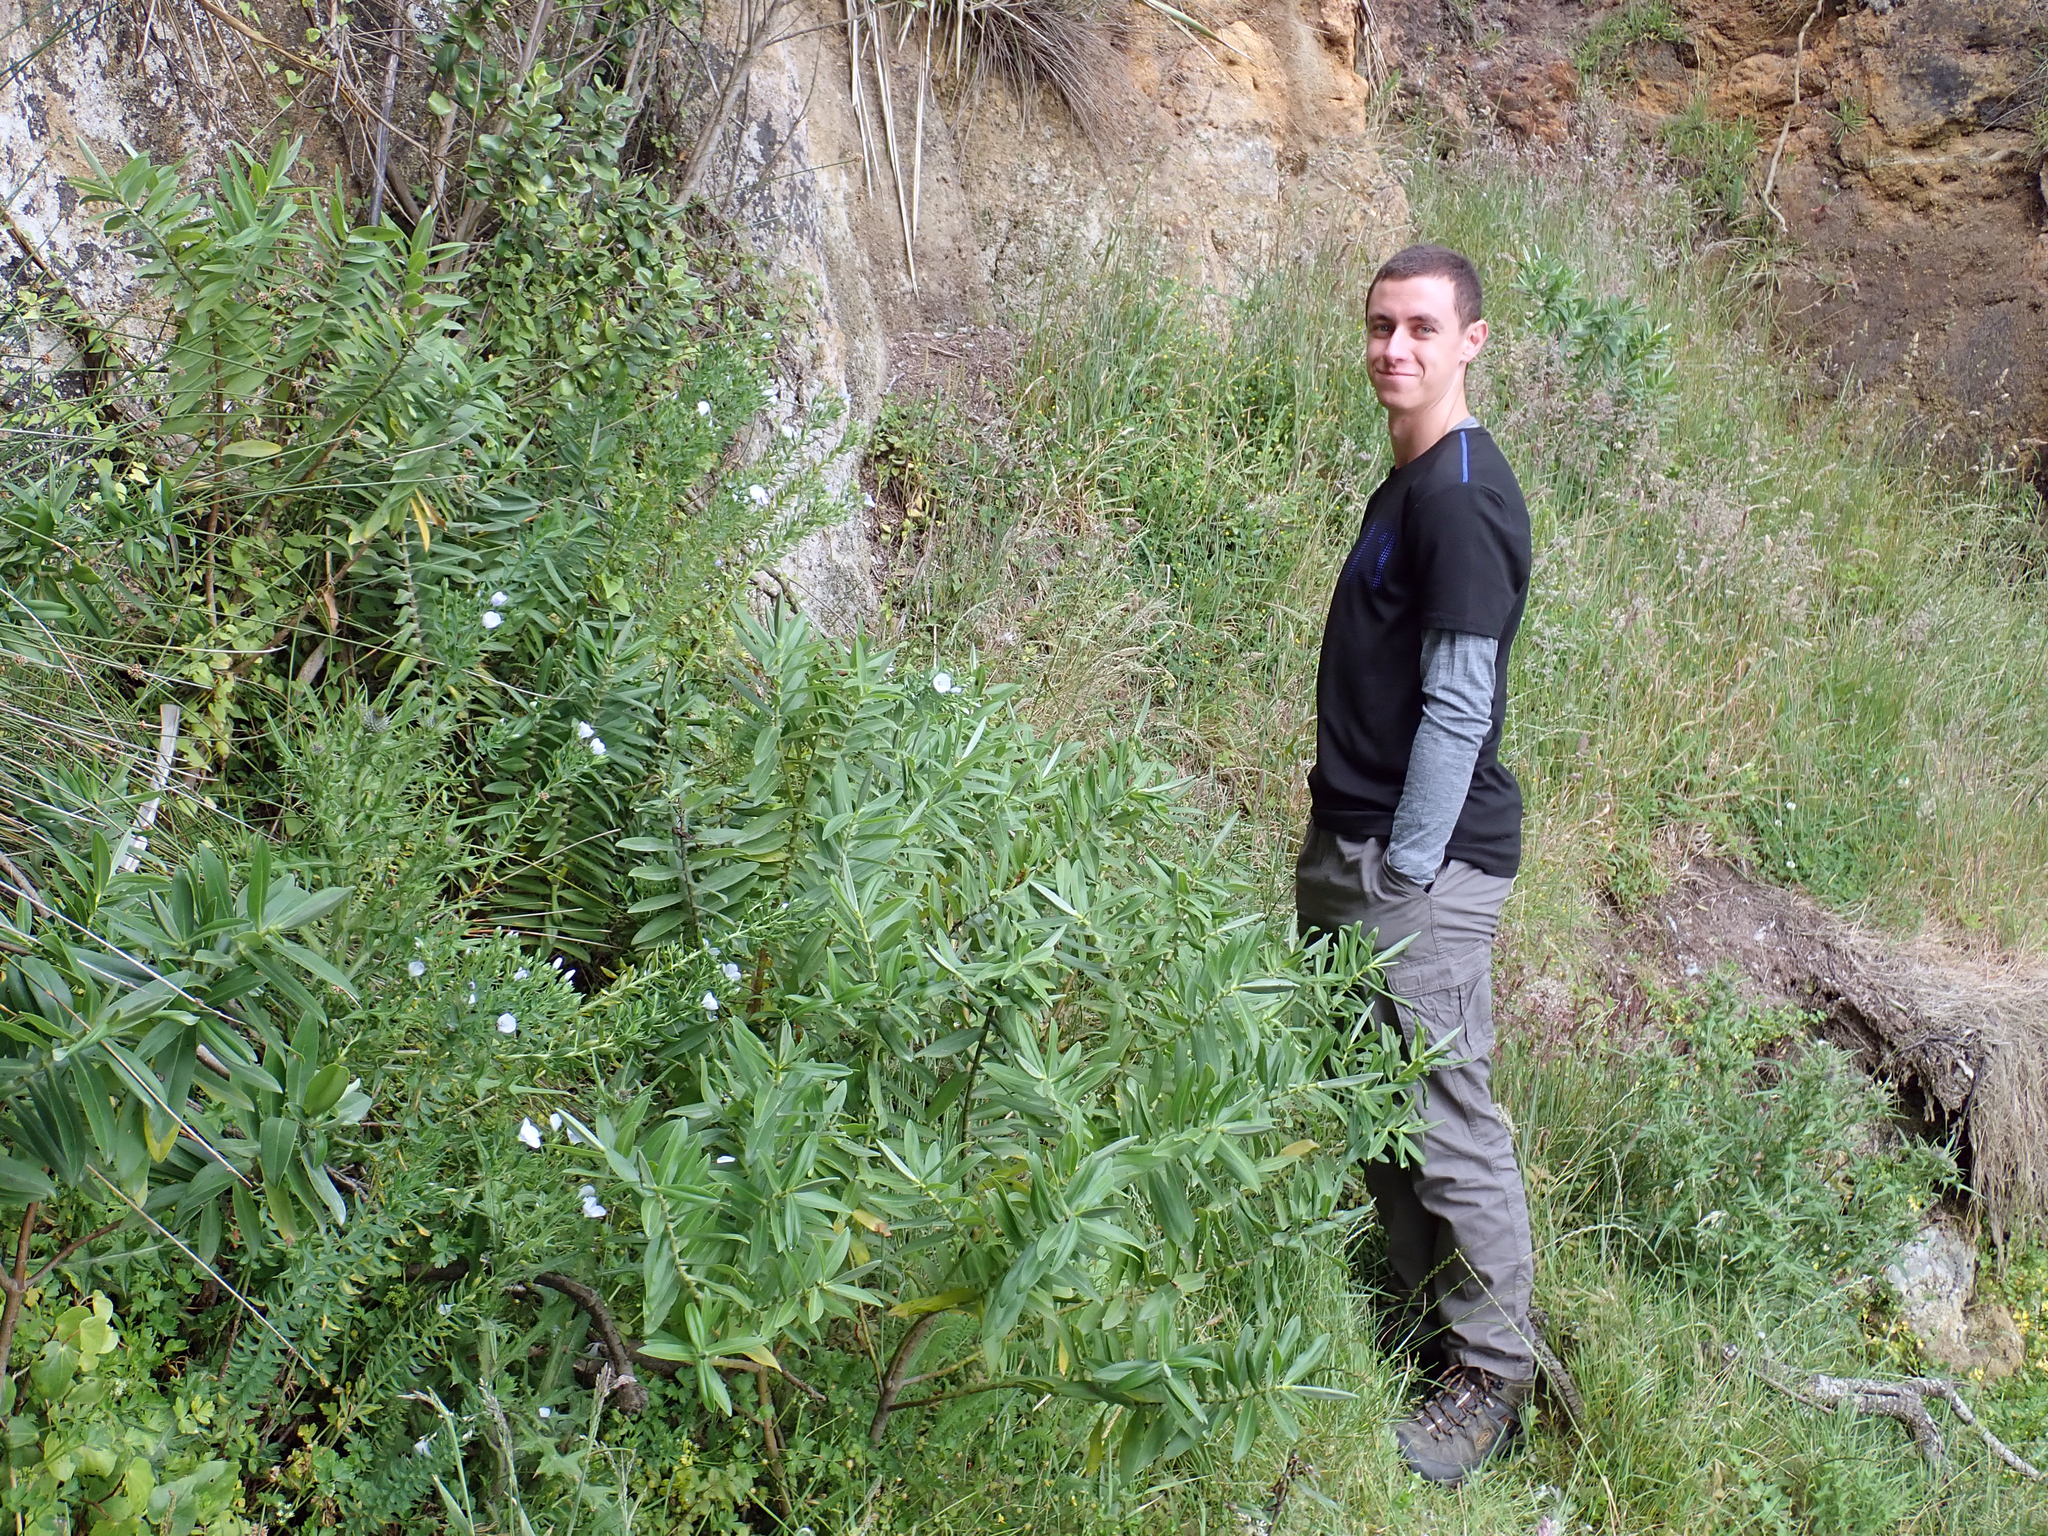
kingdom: Plantae
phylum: Tracheophyta
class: Magnoliopsida
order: Malpighiales
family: Linaceae
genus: Linum
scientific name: Linum monogynum
